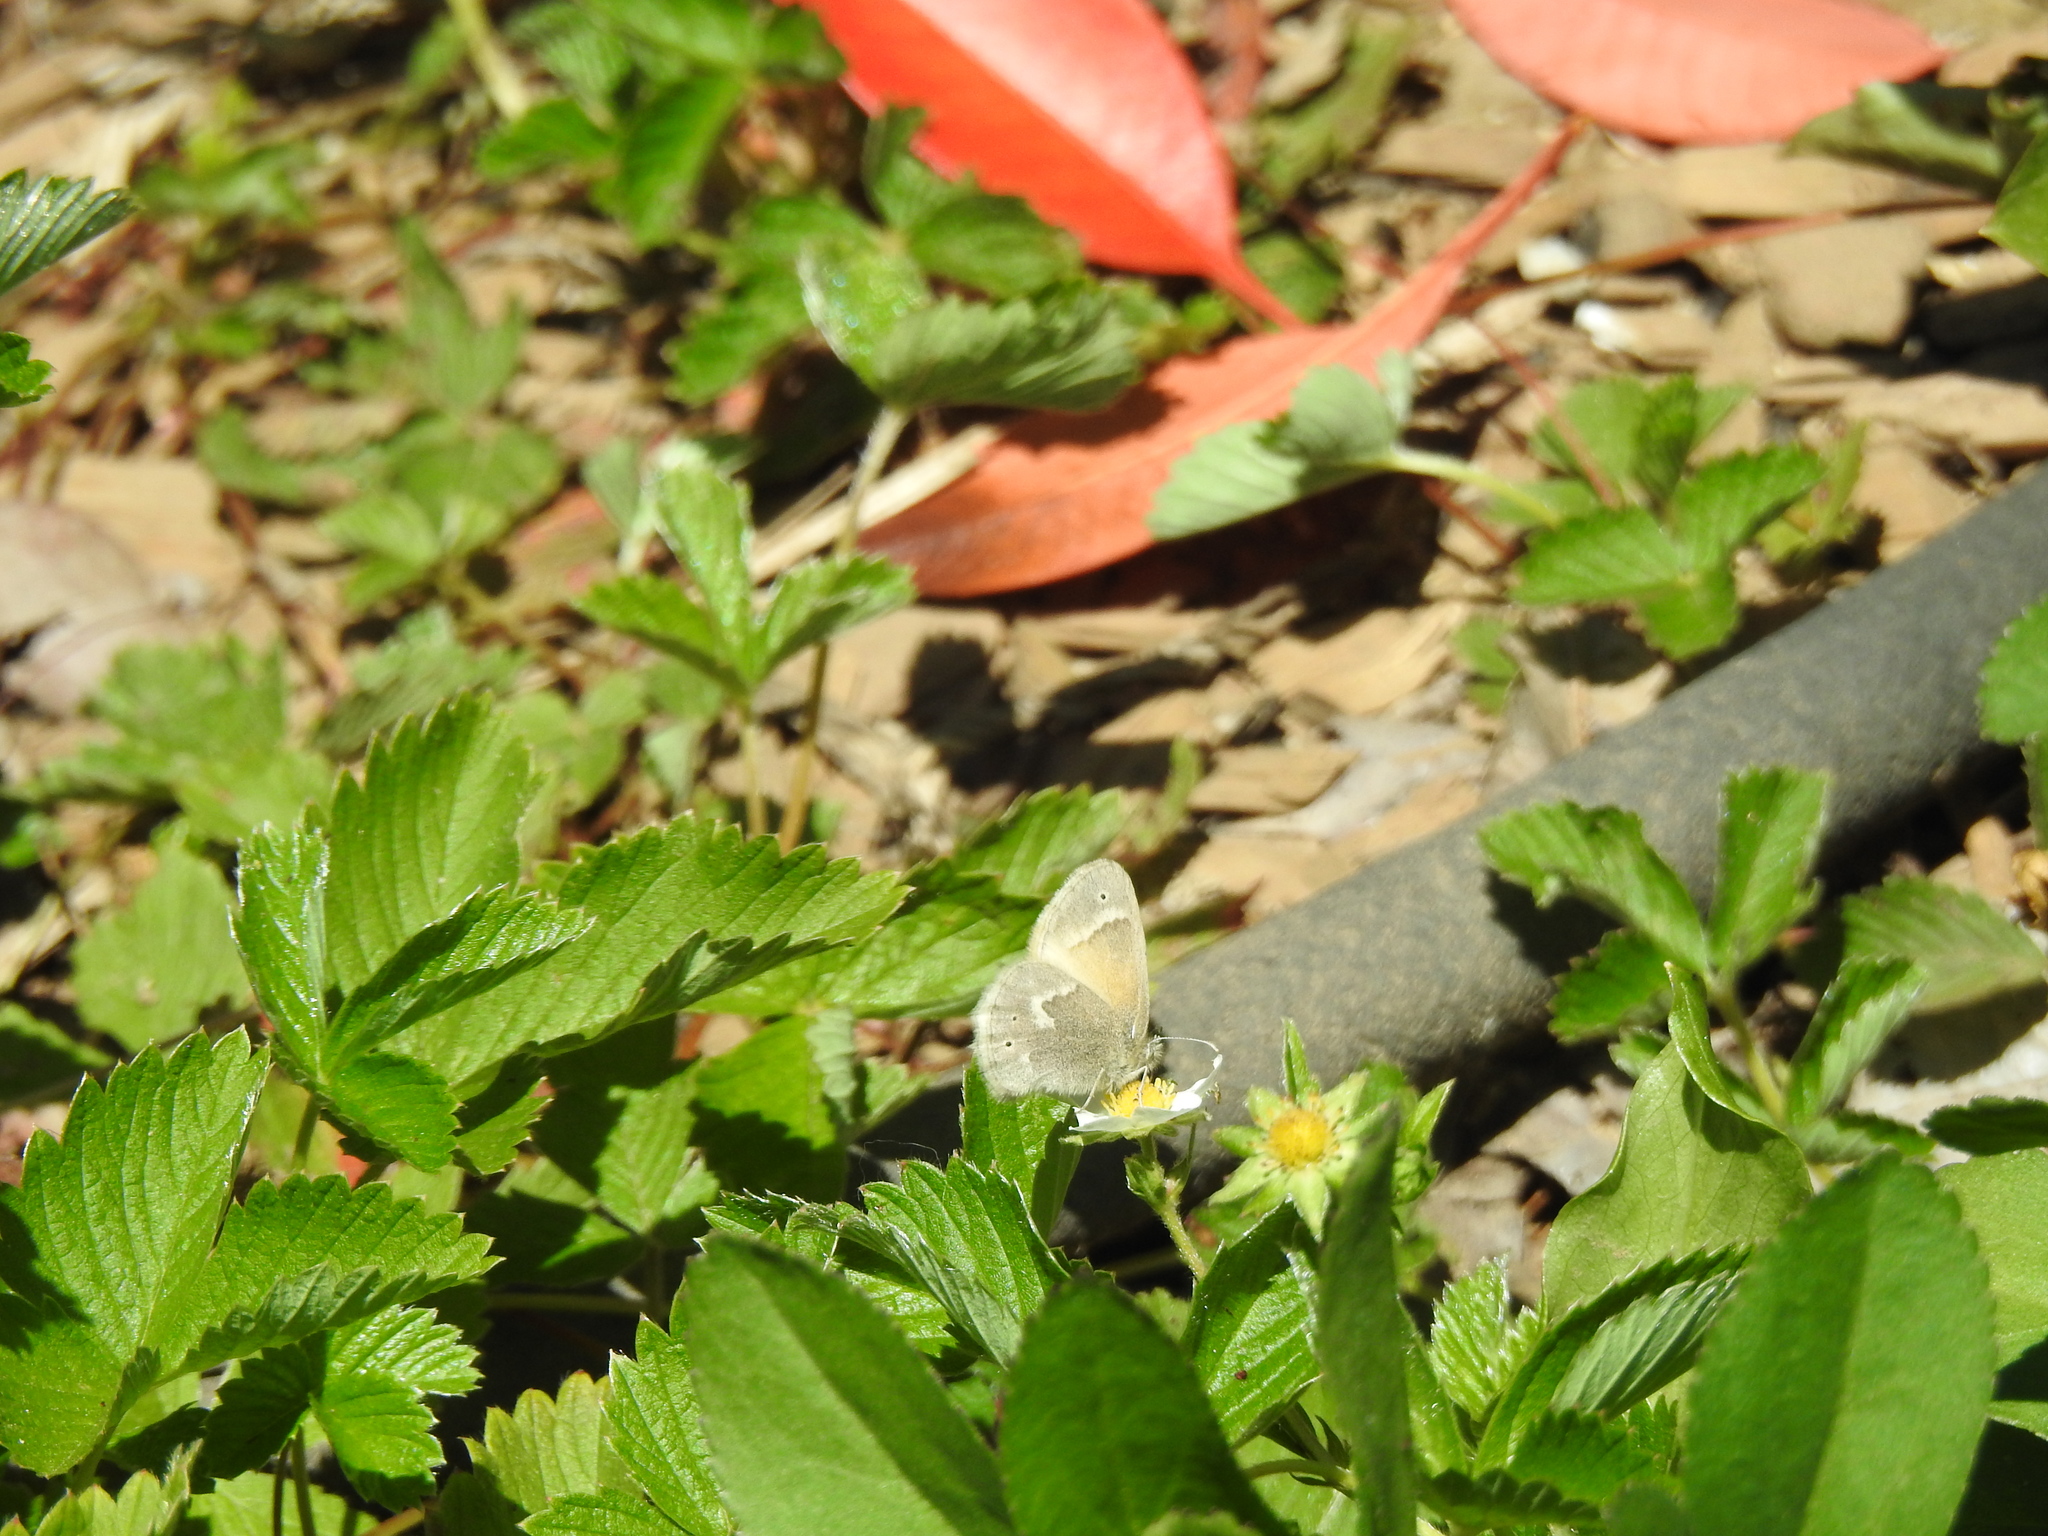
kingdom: Animalia
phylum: Arthropoda
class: Insecta
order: Lepidoptera
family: Nymphalidae
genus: Coenonympha
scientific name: Coenonympha california
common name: Common ringlet
